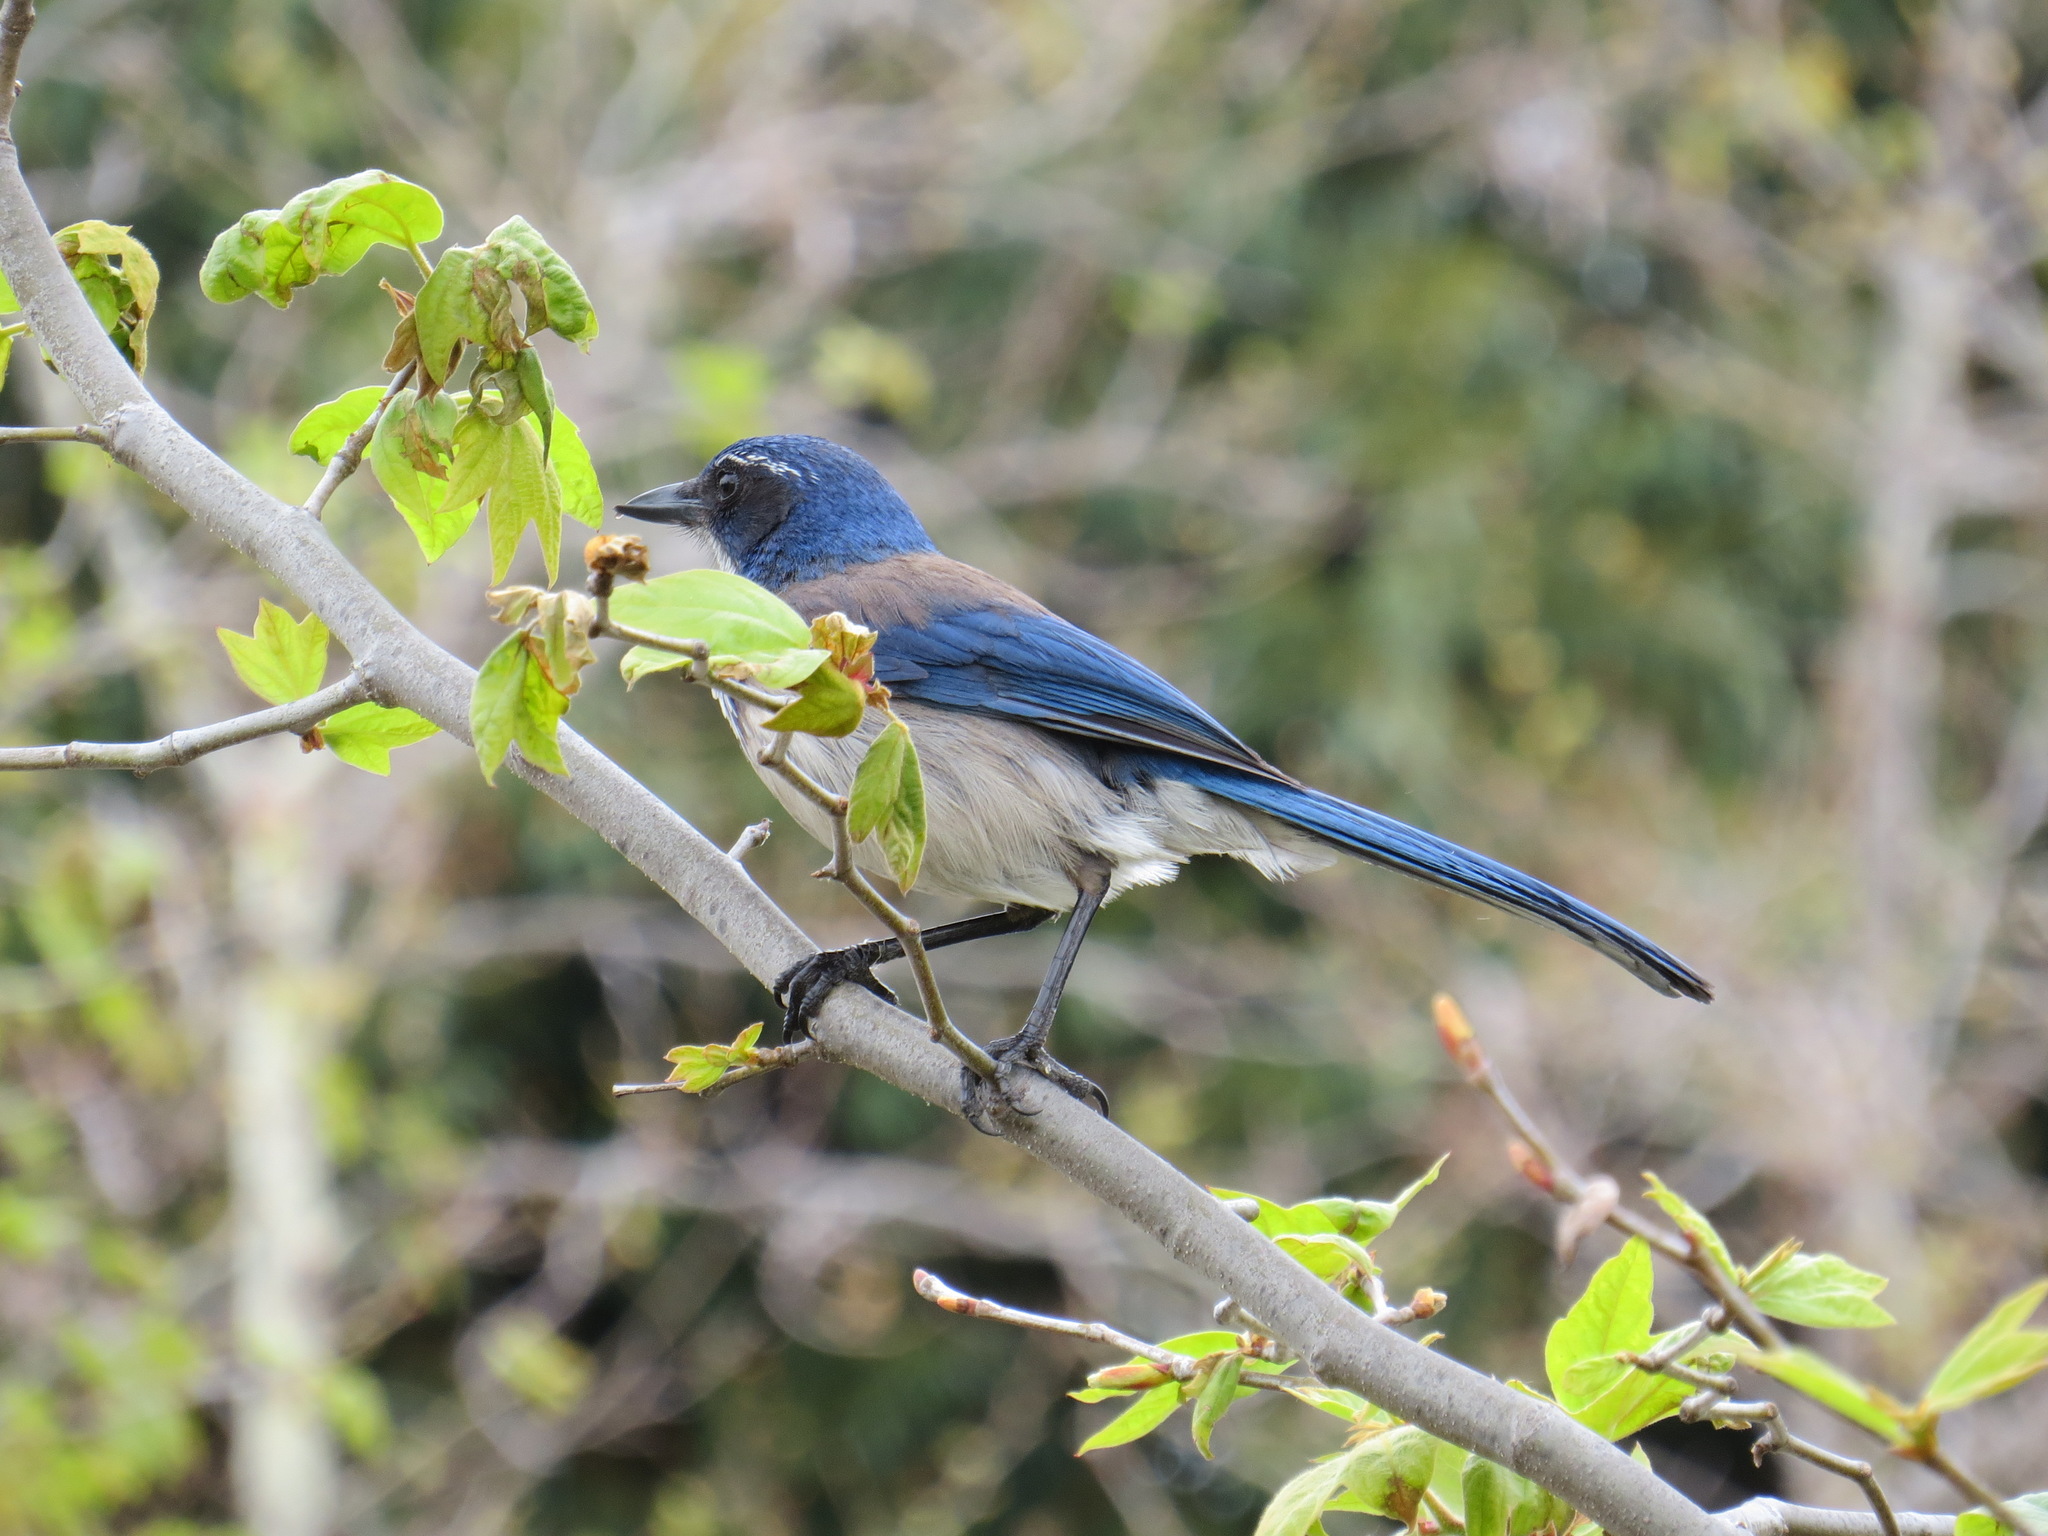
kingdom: Animalia
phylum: Chordata
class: Aves
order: Passeriformes
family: Corvidae
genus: Aphelocoma
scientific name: Aphelocoma californica
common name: California scrub-jay
